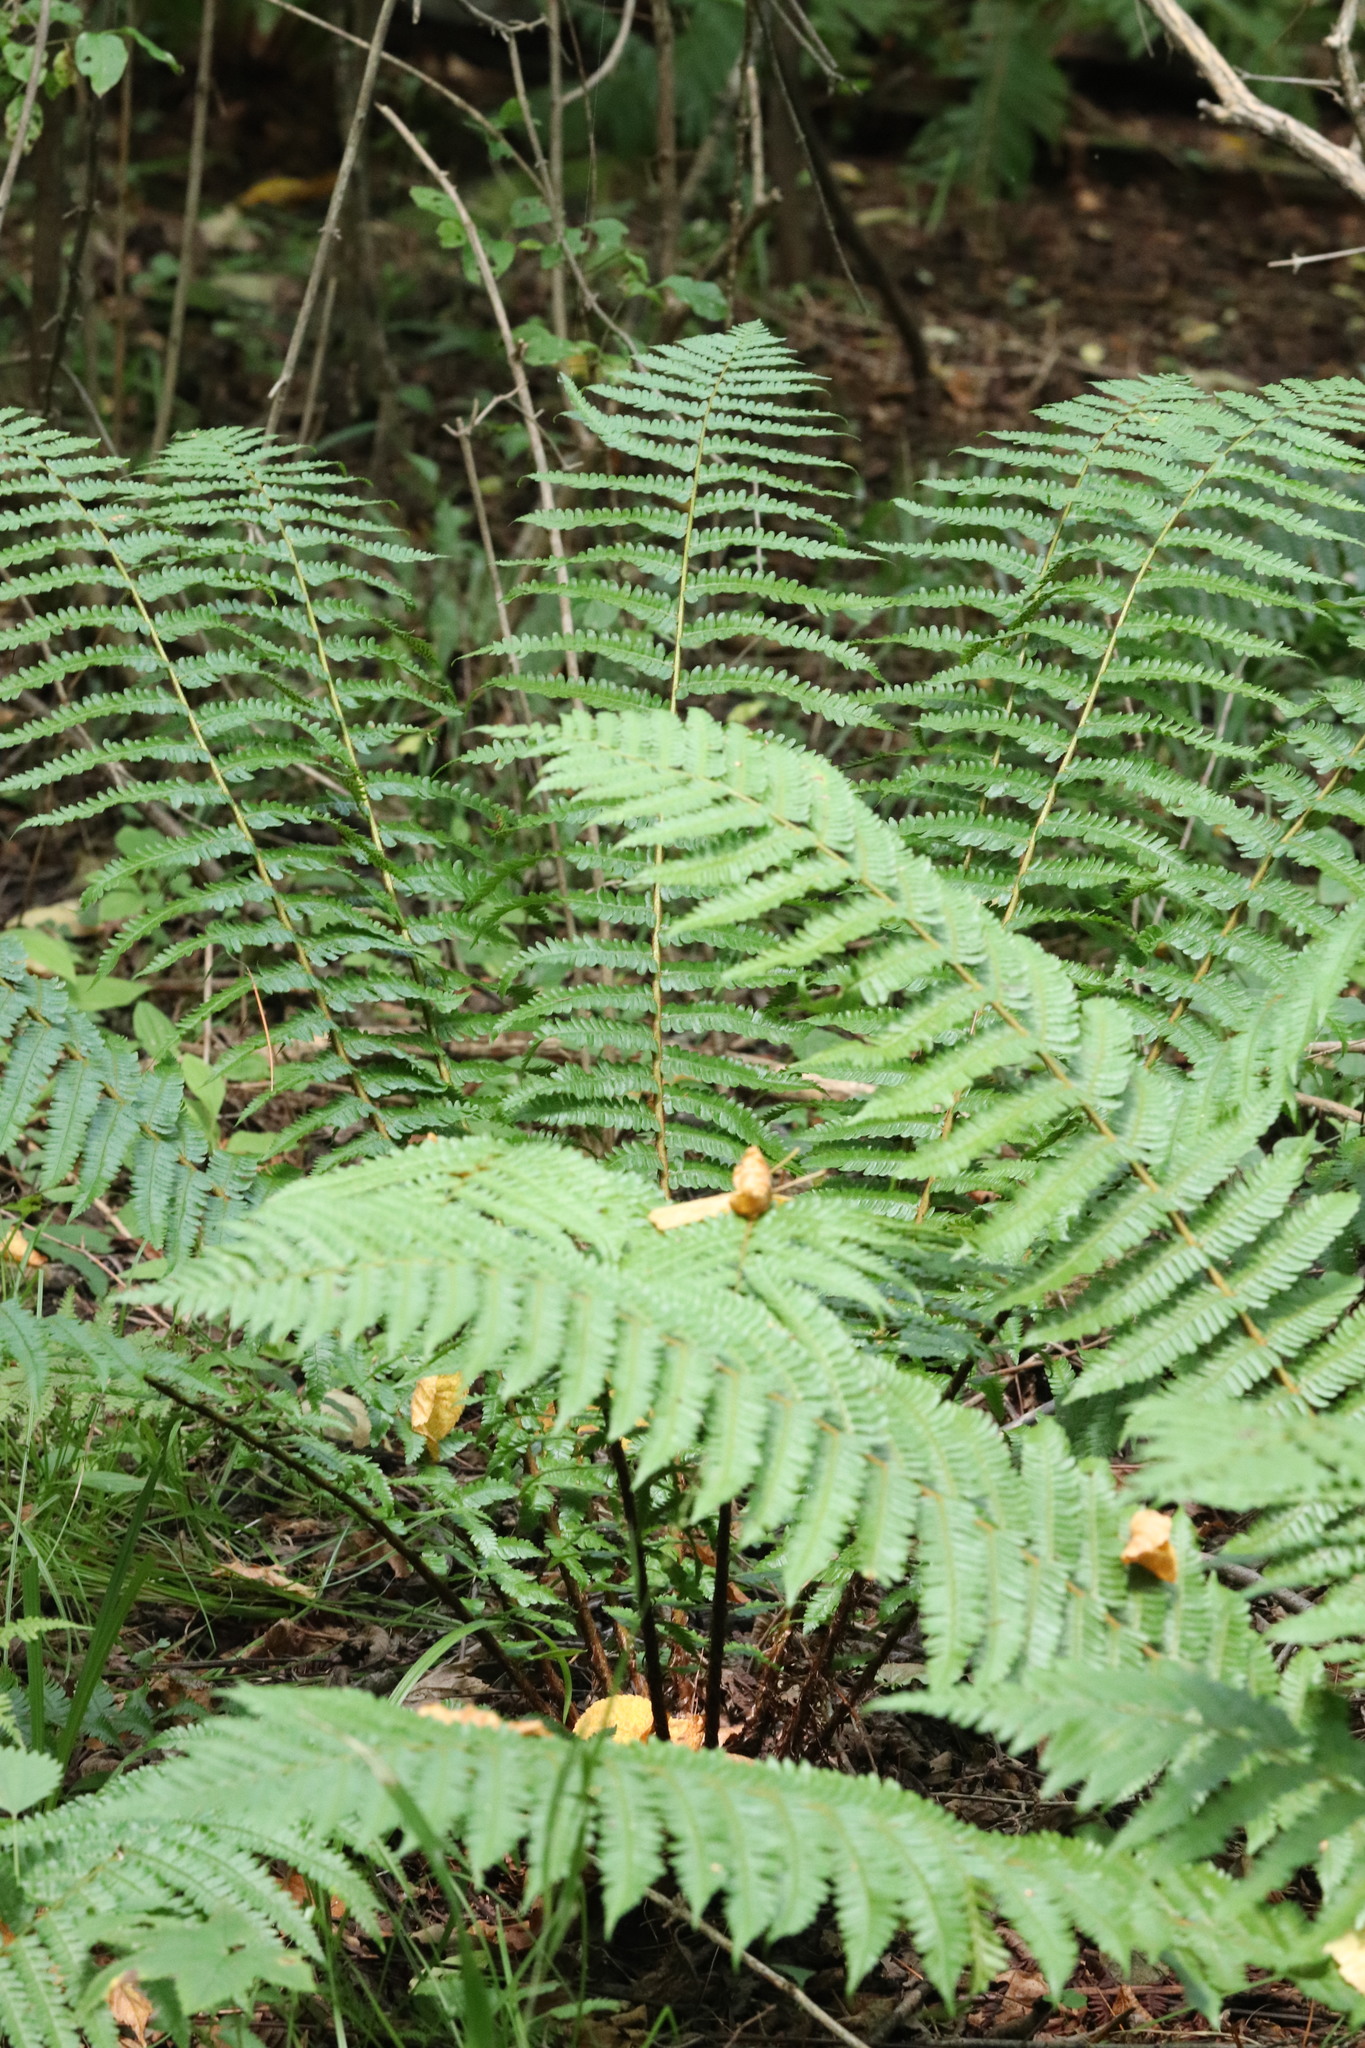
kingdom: Plantae
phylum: Tracheophyta
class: Polypodiopsida
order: Polypodiales
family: Dryopteridaceae
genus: Dryopteris
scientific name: Dryopteris crassirhizoma
